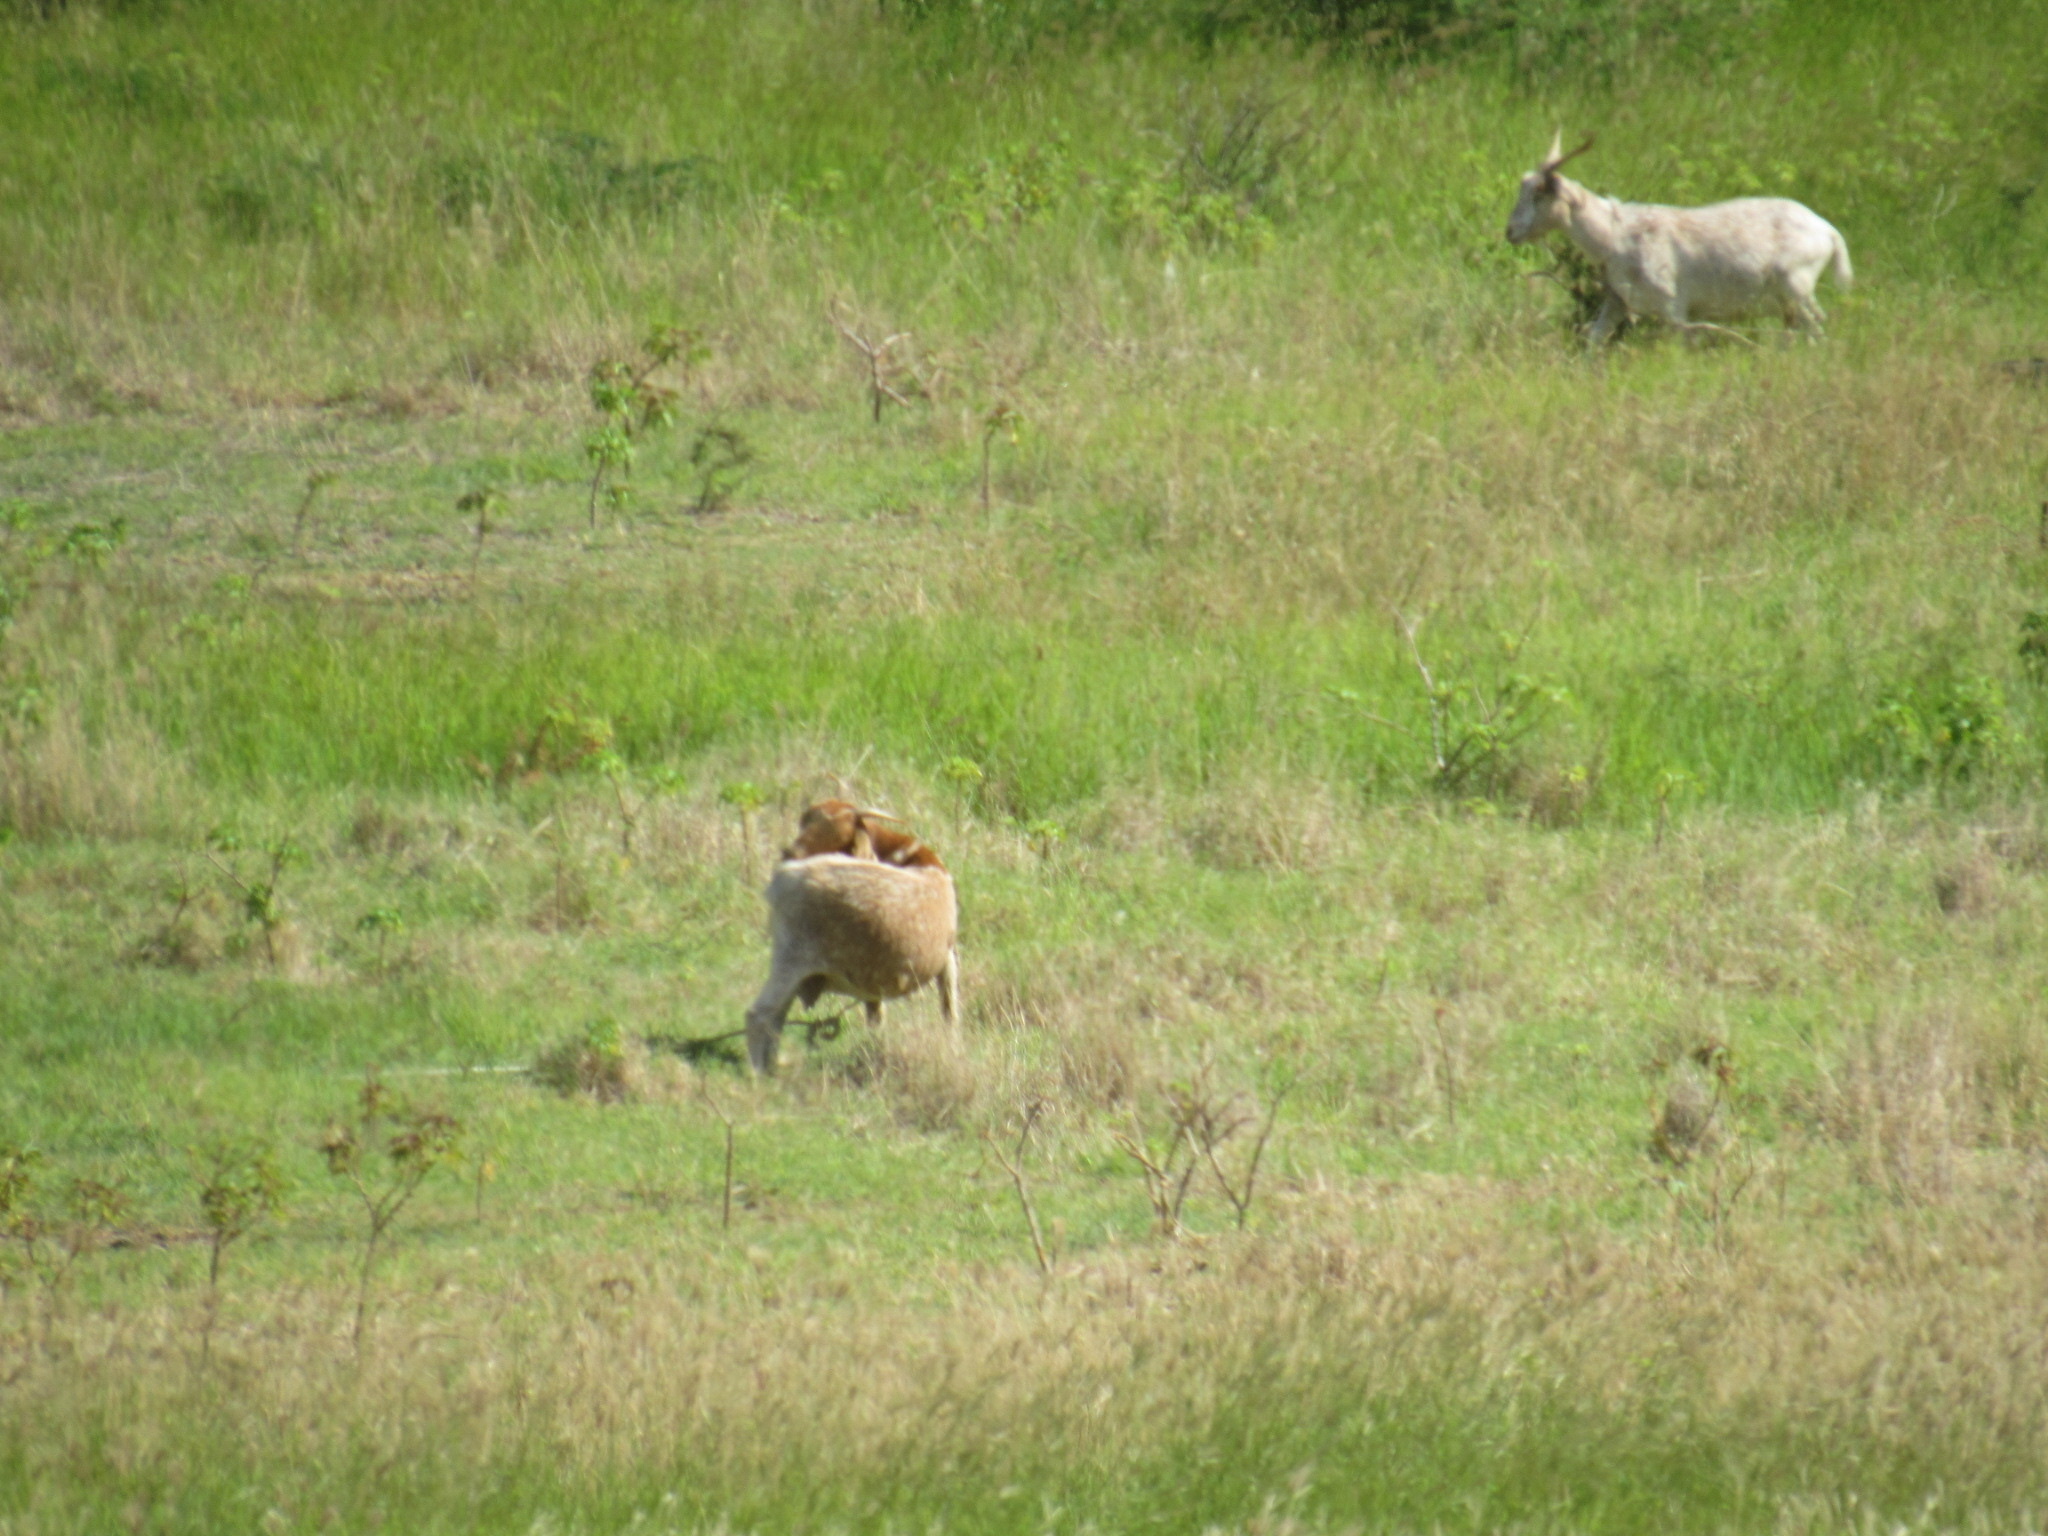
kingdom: Animalia
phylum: Chordata
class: Mammalia
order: Artiodactyla
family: Bovidae
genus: Capra
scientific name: Capra hircus
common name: Domestic goat
